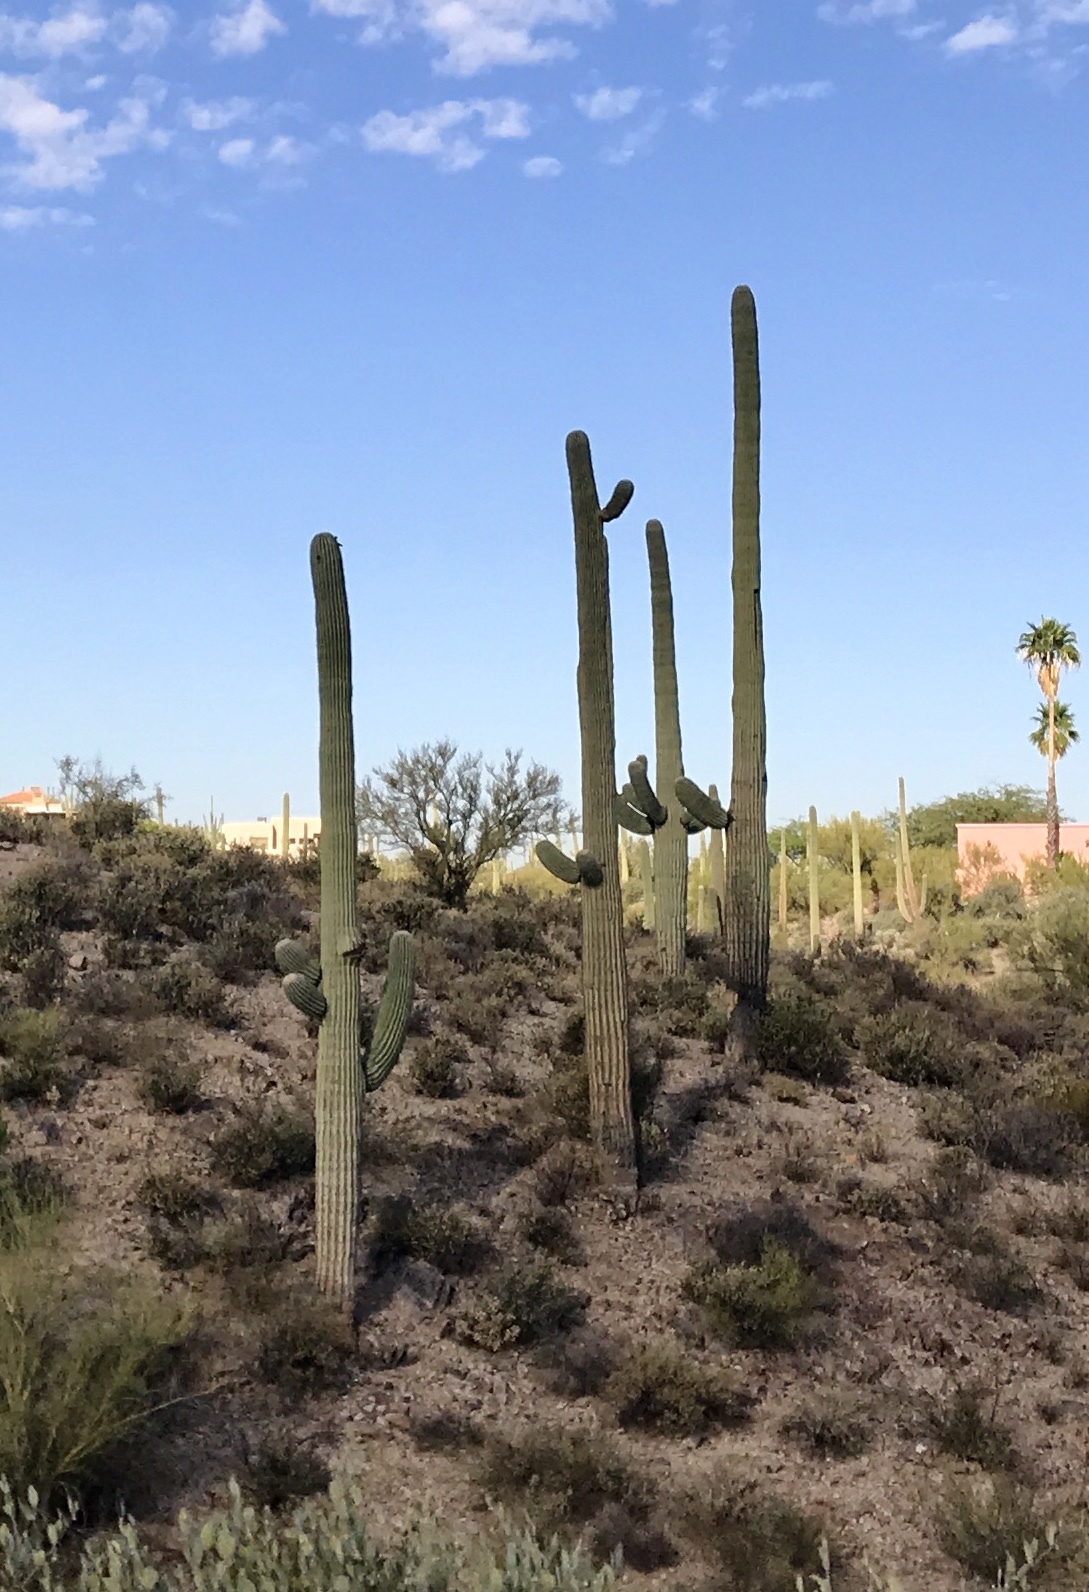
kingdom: Plantae
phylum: Tracheophyta
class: Magnoliopsida
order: Caryophyllales
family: Cactaceae
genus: Carnegiea
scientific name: Carnegiea gigantea
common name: Saguaro
